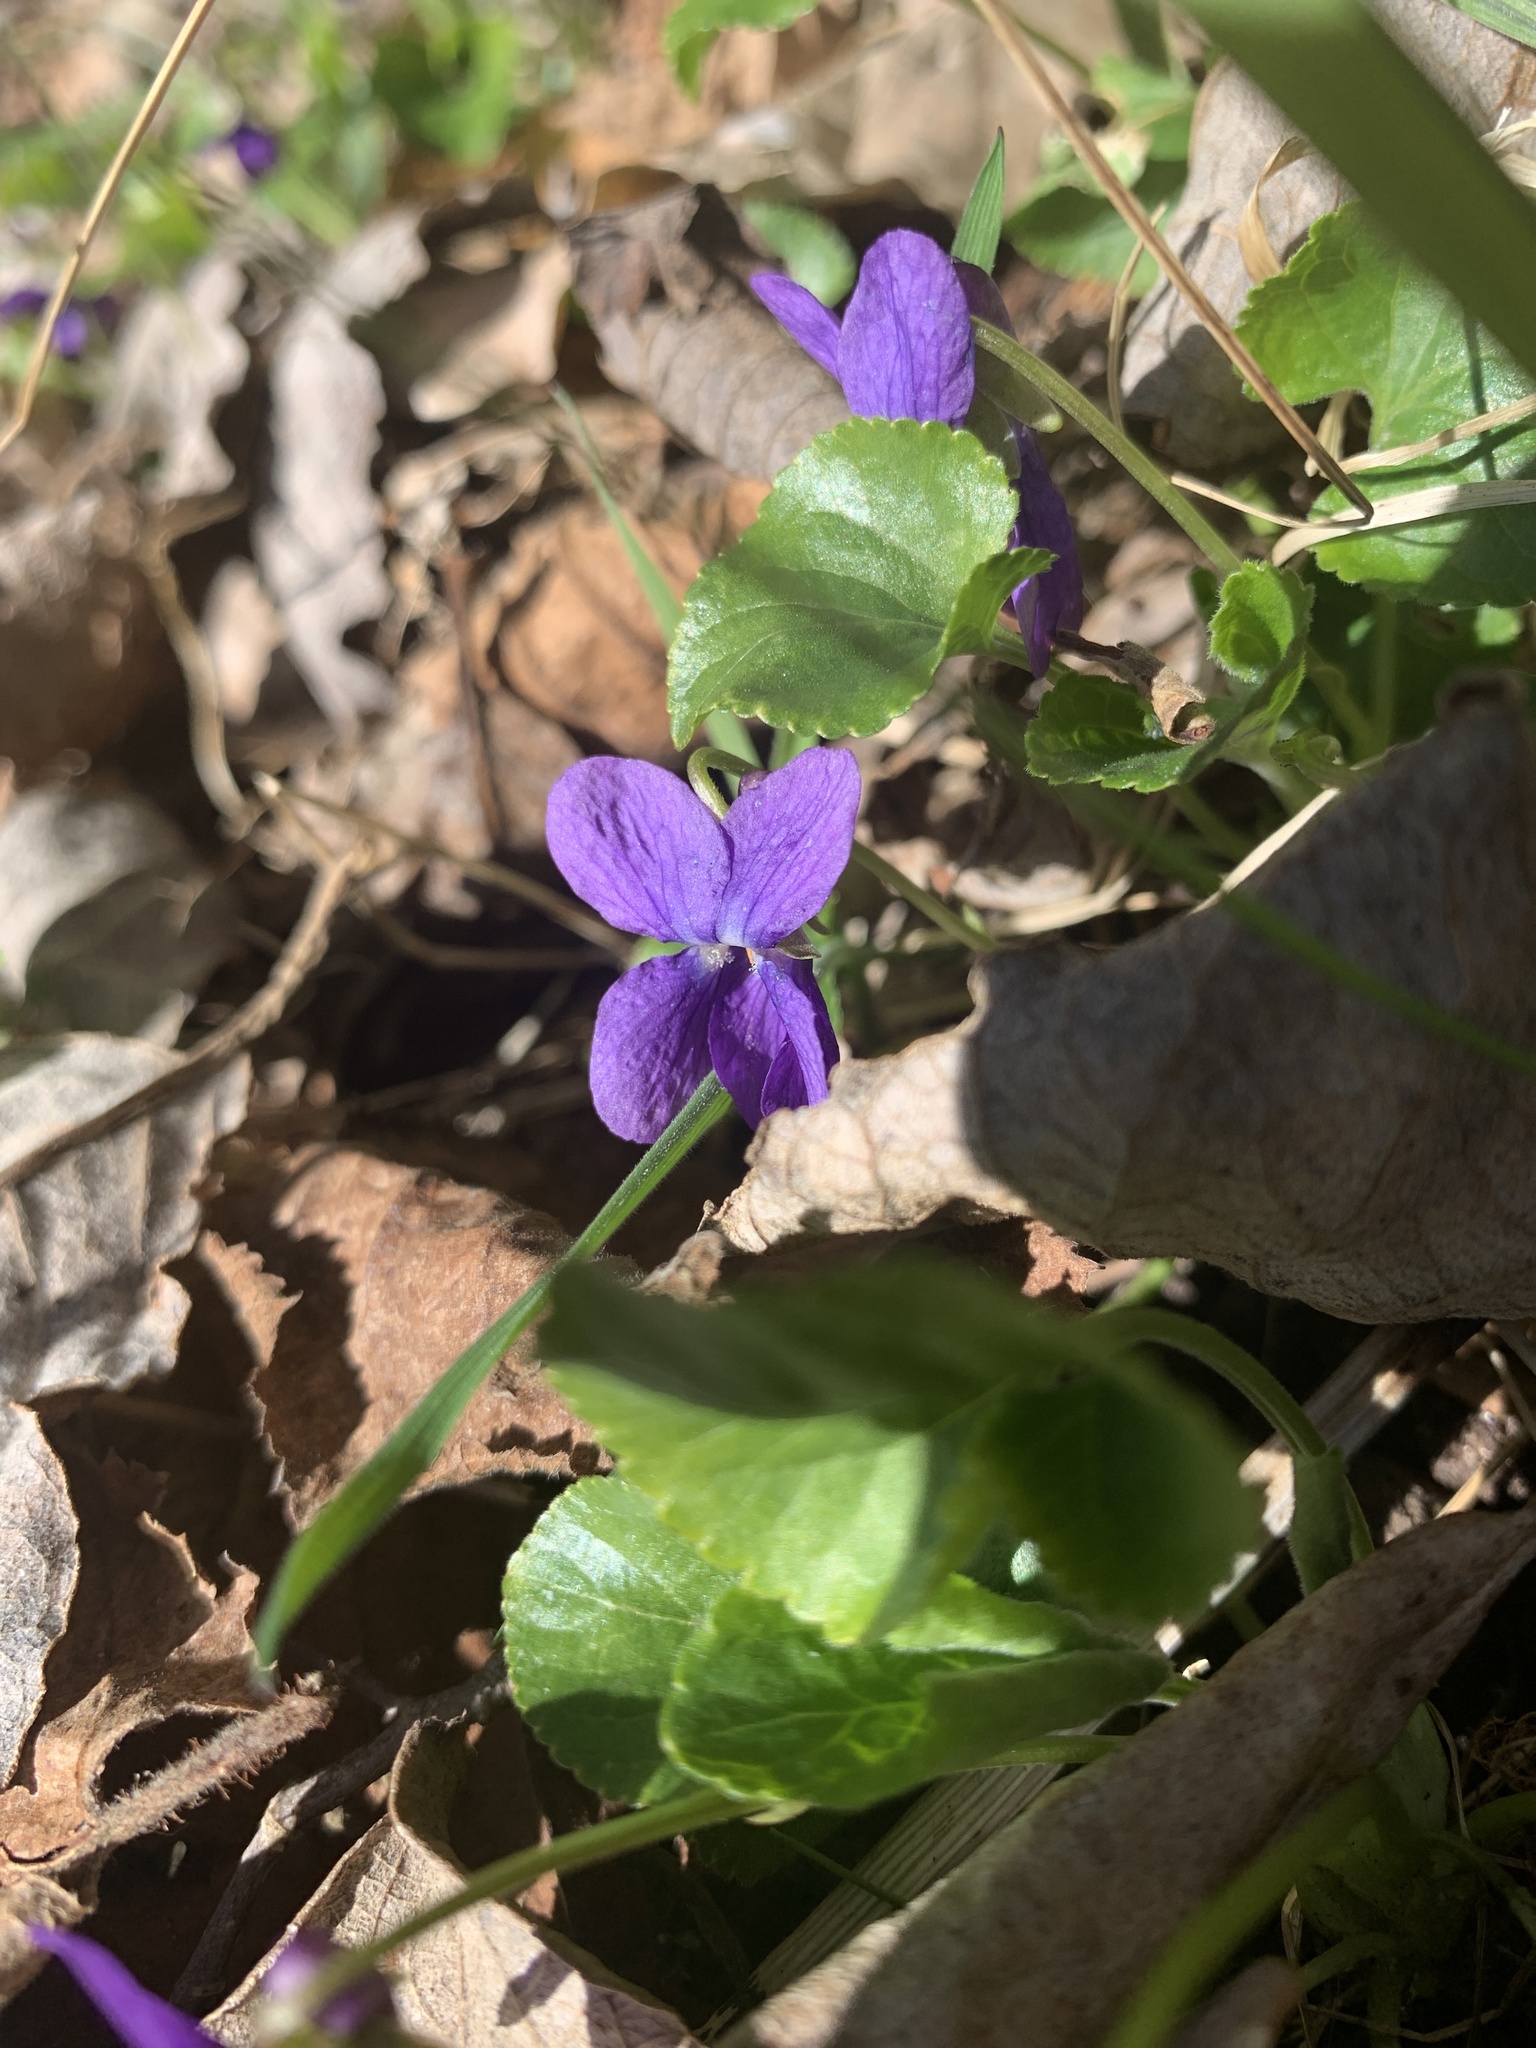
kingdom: Plantae
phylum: Tracheophyta
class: Magnoliopsida
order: Malpighiales
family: Violaceae
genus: Viola
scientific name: Viola odorata
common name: Sweet violet
